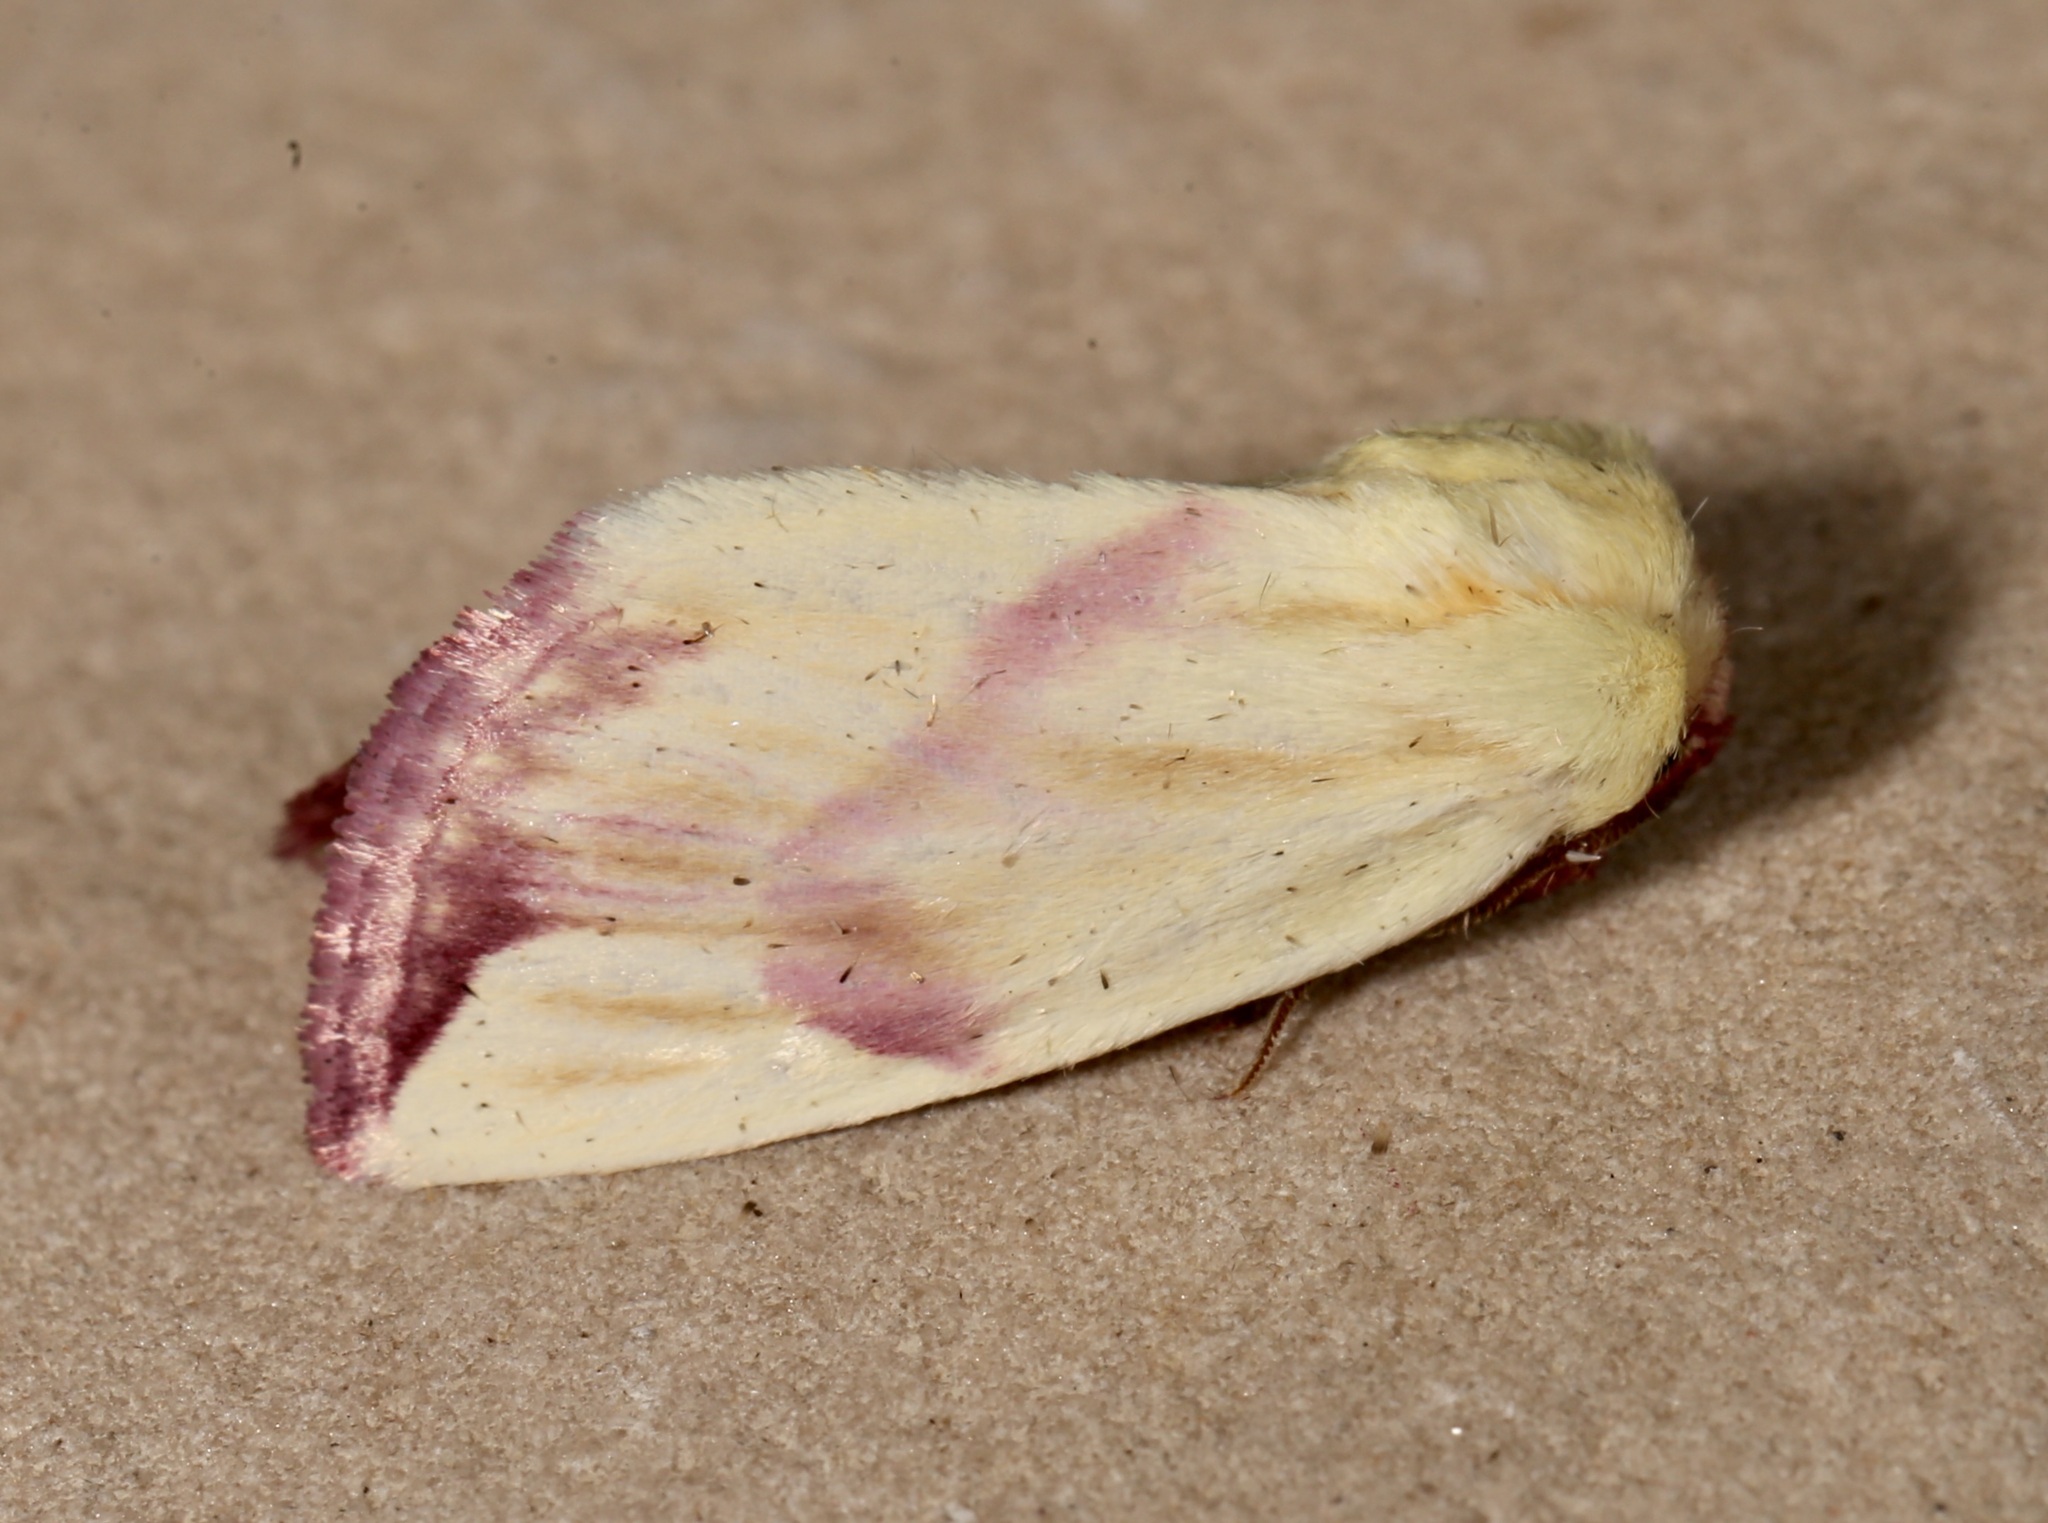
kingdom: Animalia
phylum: Arthropoda
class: Insecta
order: Lepidoptera
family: Noctuidae
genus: Thurberiphaga
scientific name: Thurberiphaga diffusa
